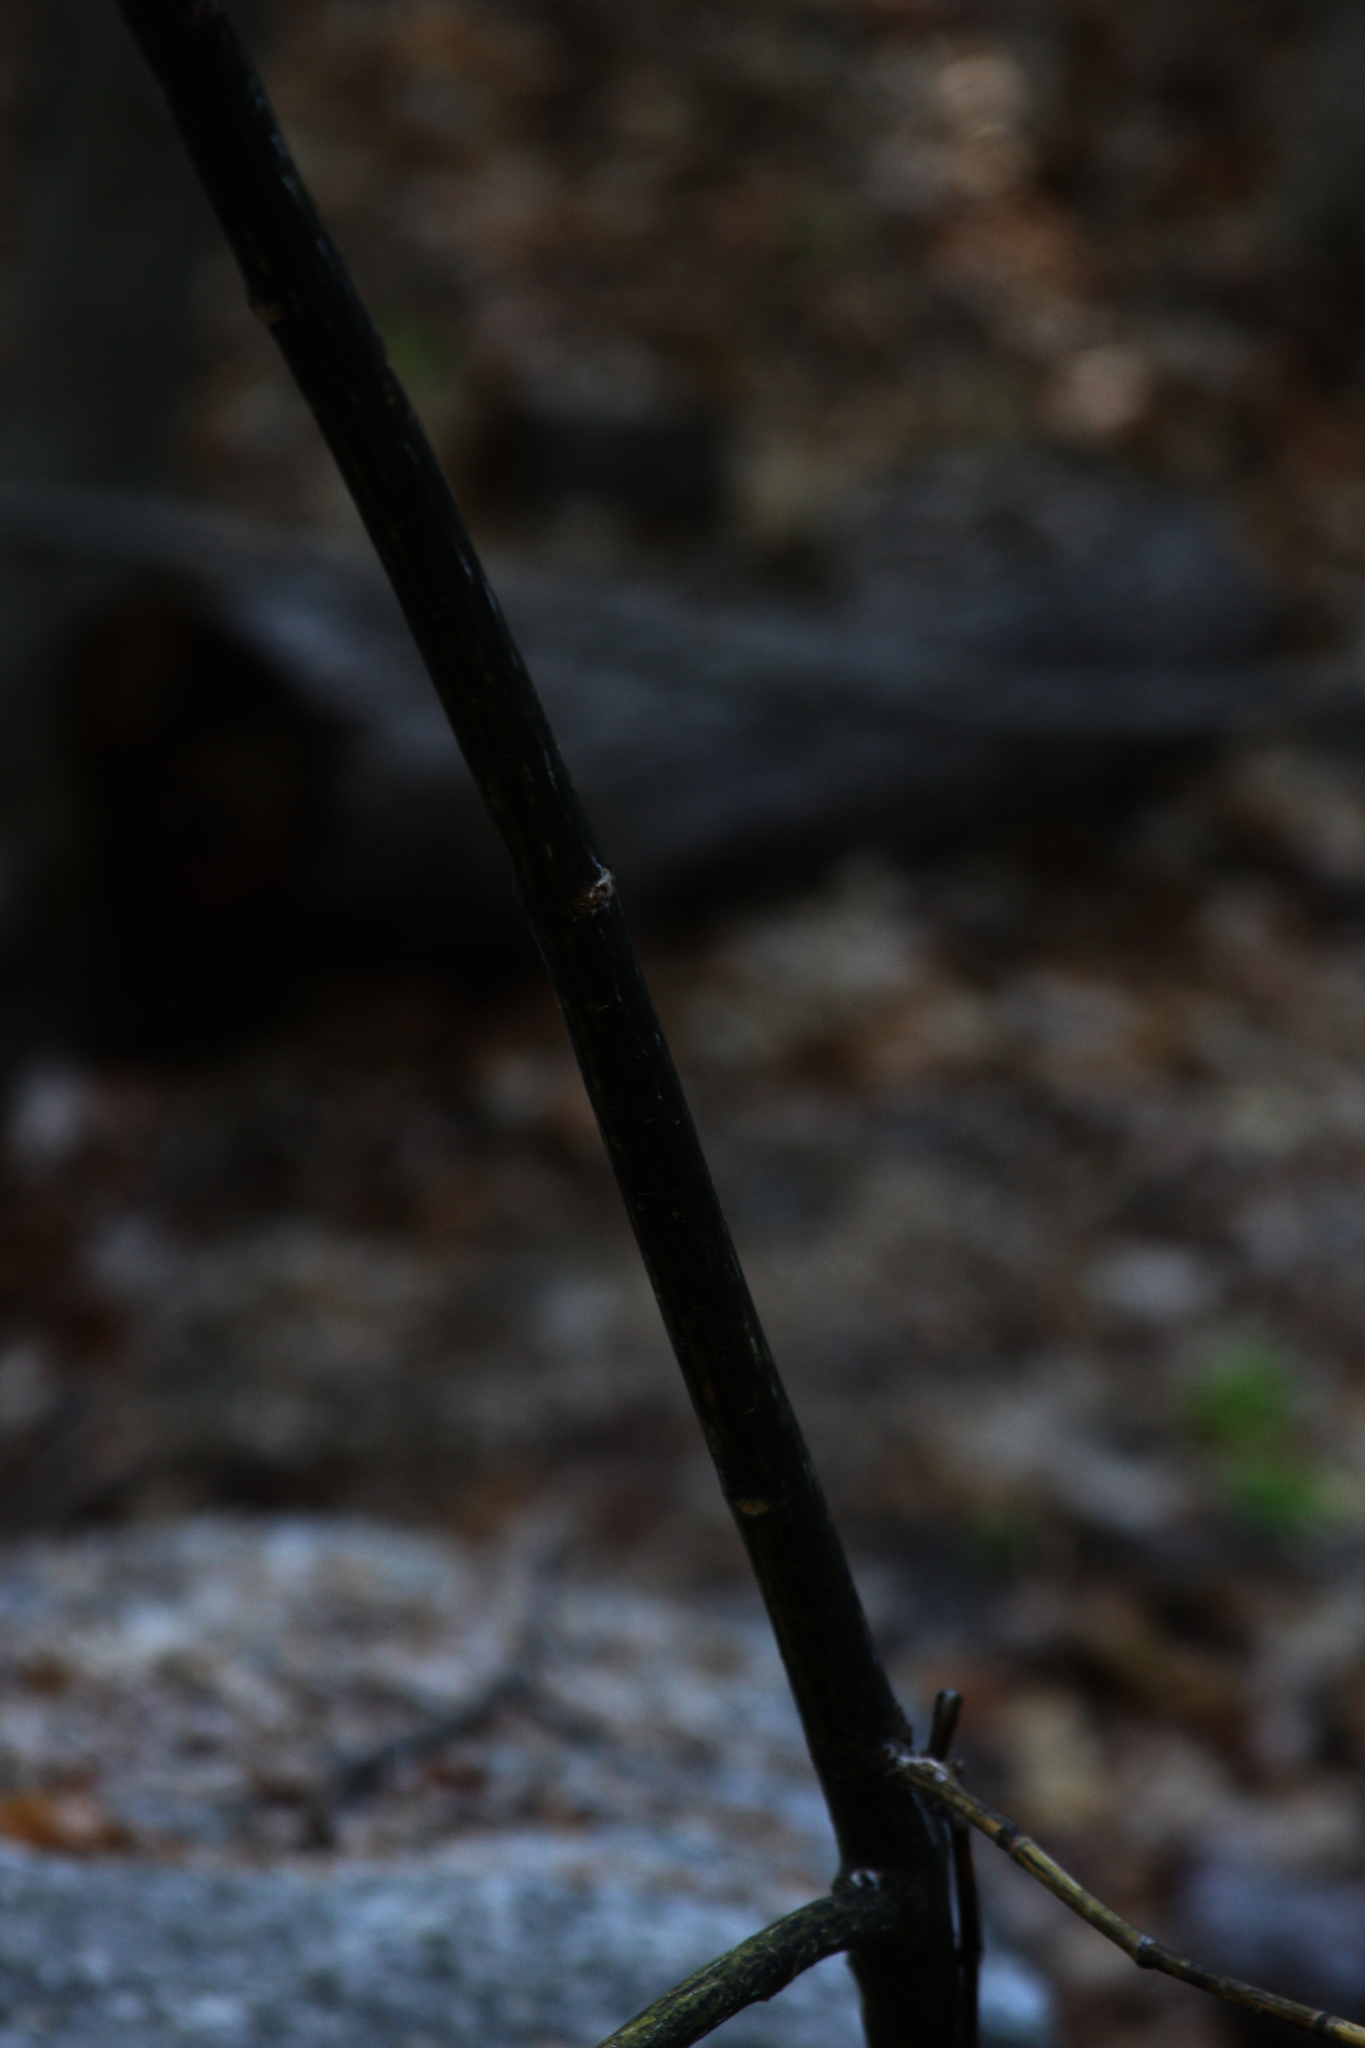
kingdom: Plantae
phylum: Tracheophyta
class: Magnoliopsida
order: Sapindales
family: Sapindaceae
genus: Acer
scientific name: Acer pensylvanicum
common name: Moosewood
